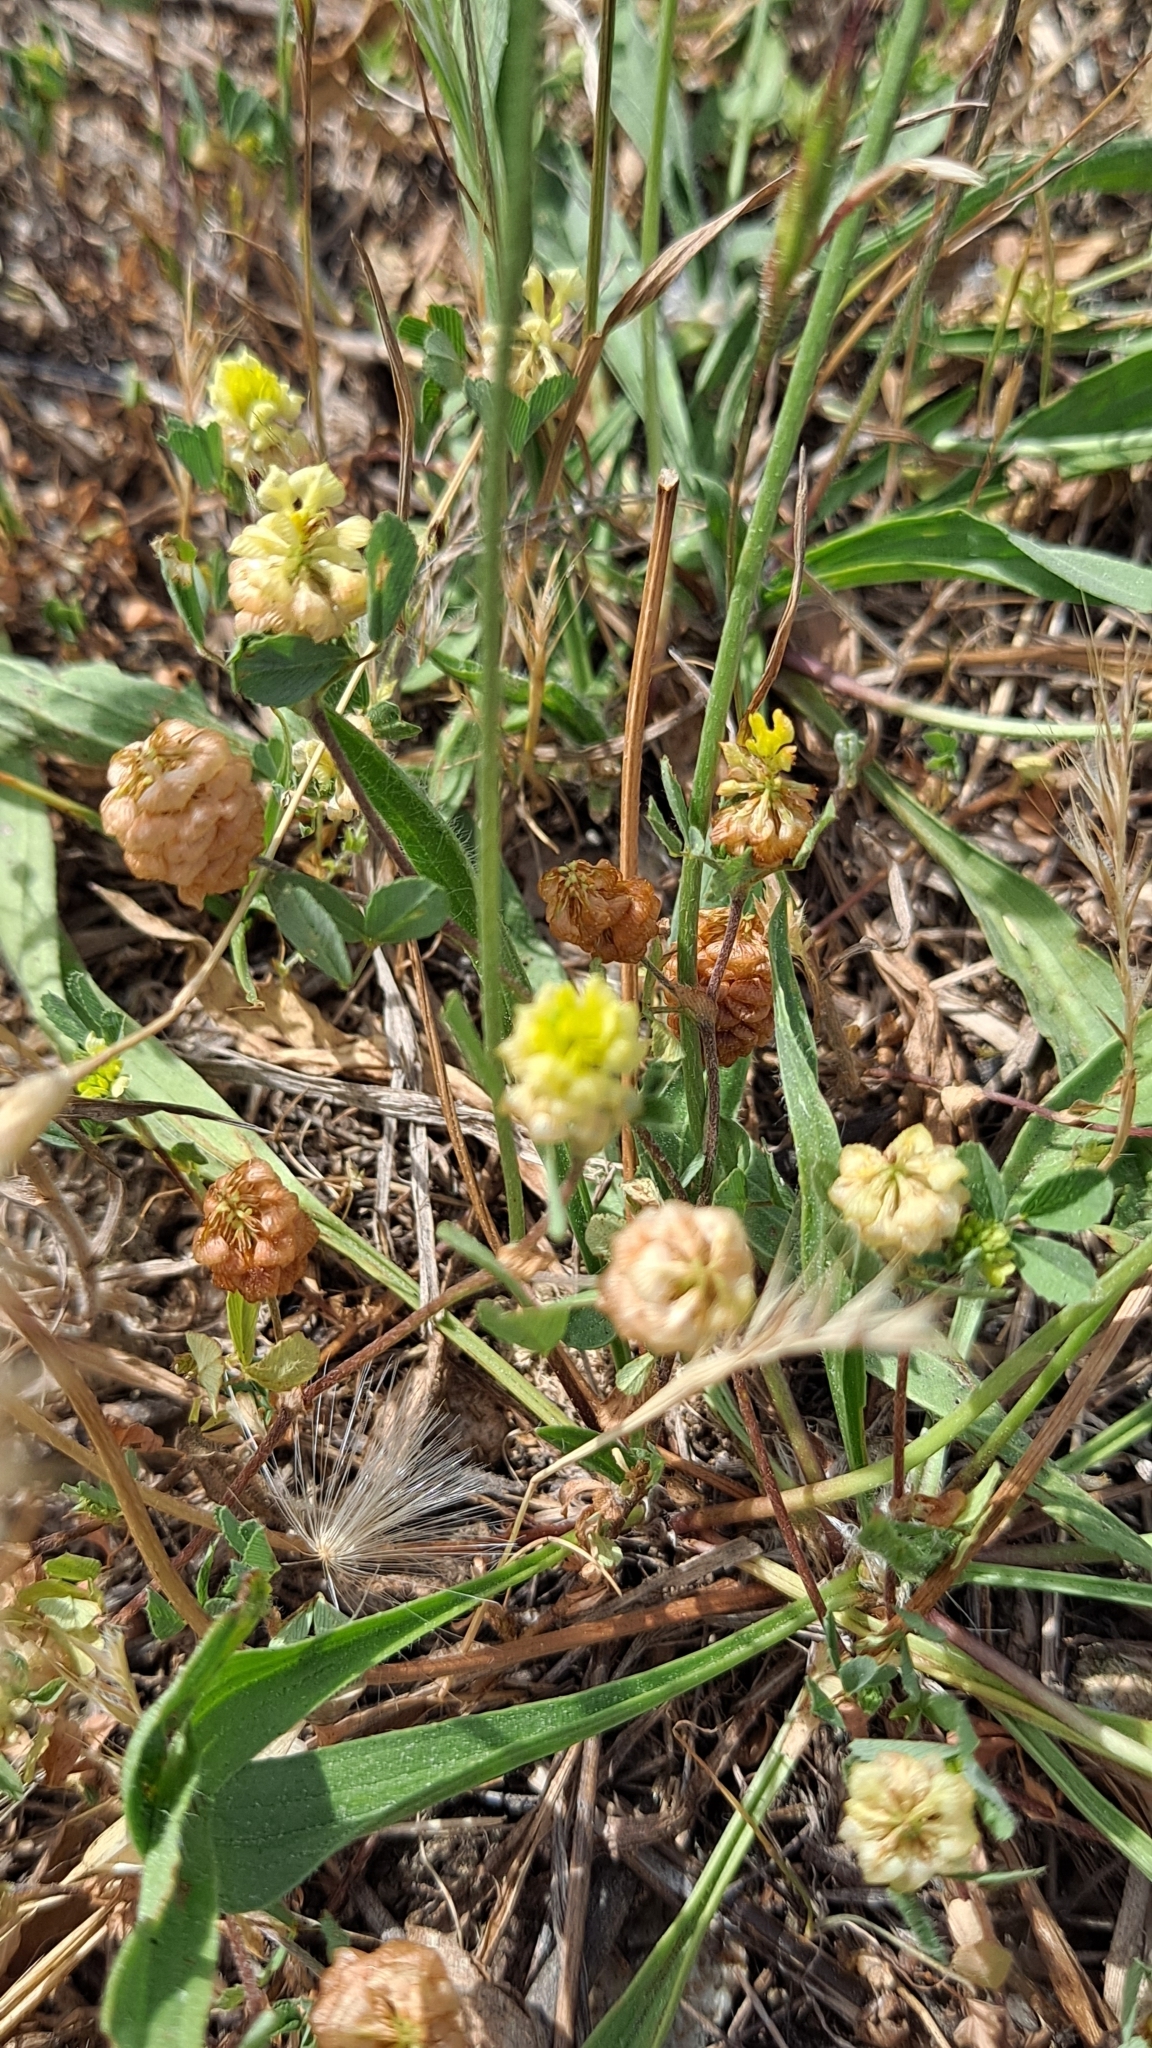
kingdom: Plantae
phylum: Tracheophyta
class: Magnoliopsida
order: Fabales
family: Fabaceae
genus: Trifolium
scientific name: Trifolium campestre
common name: Field clover
